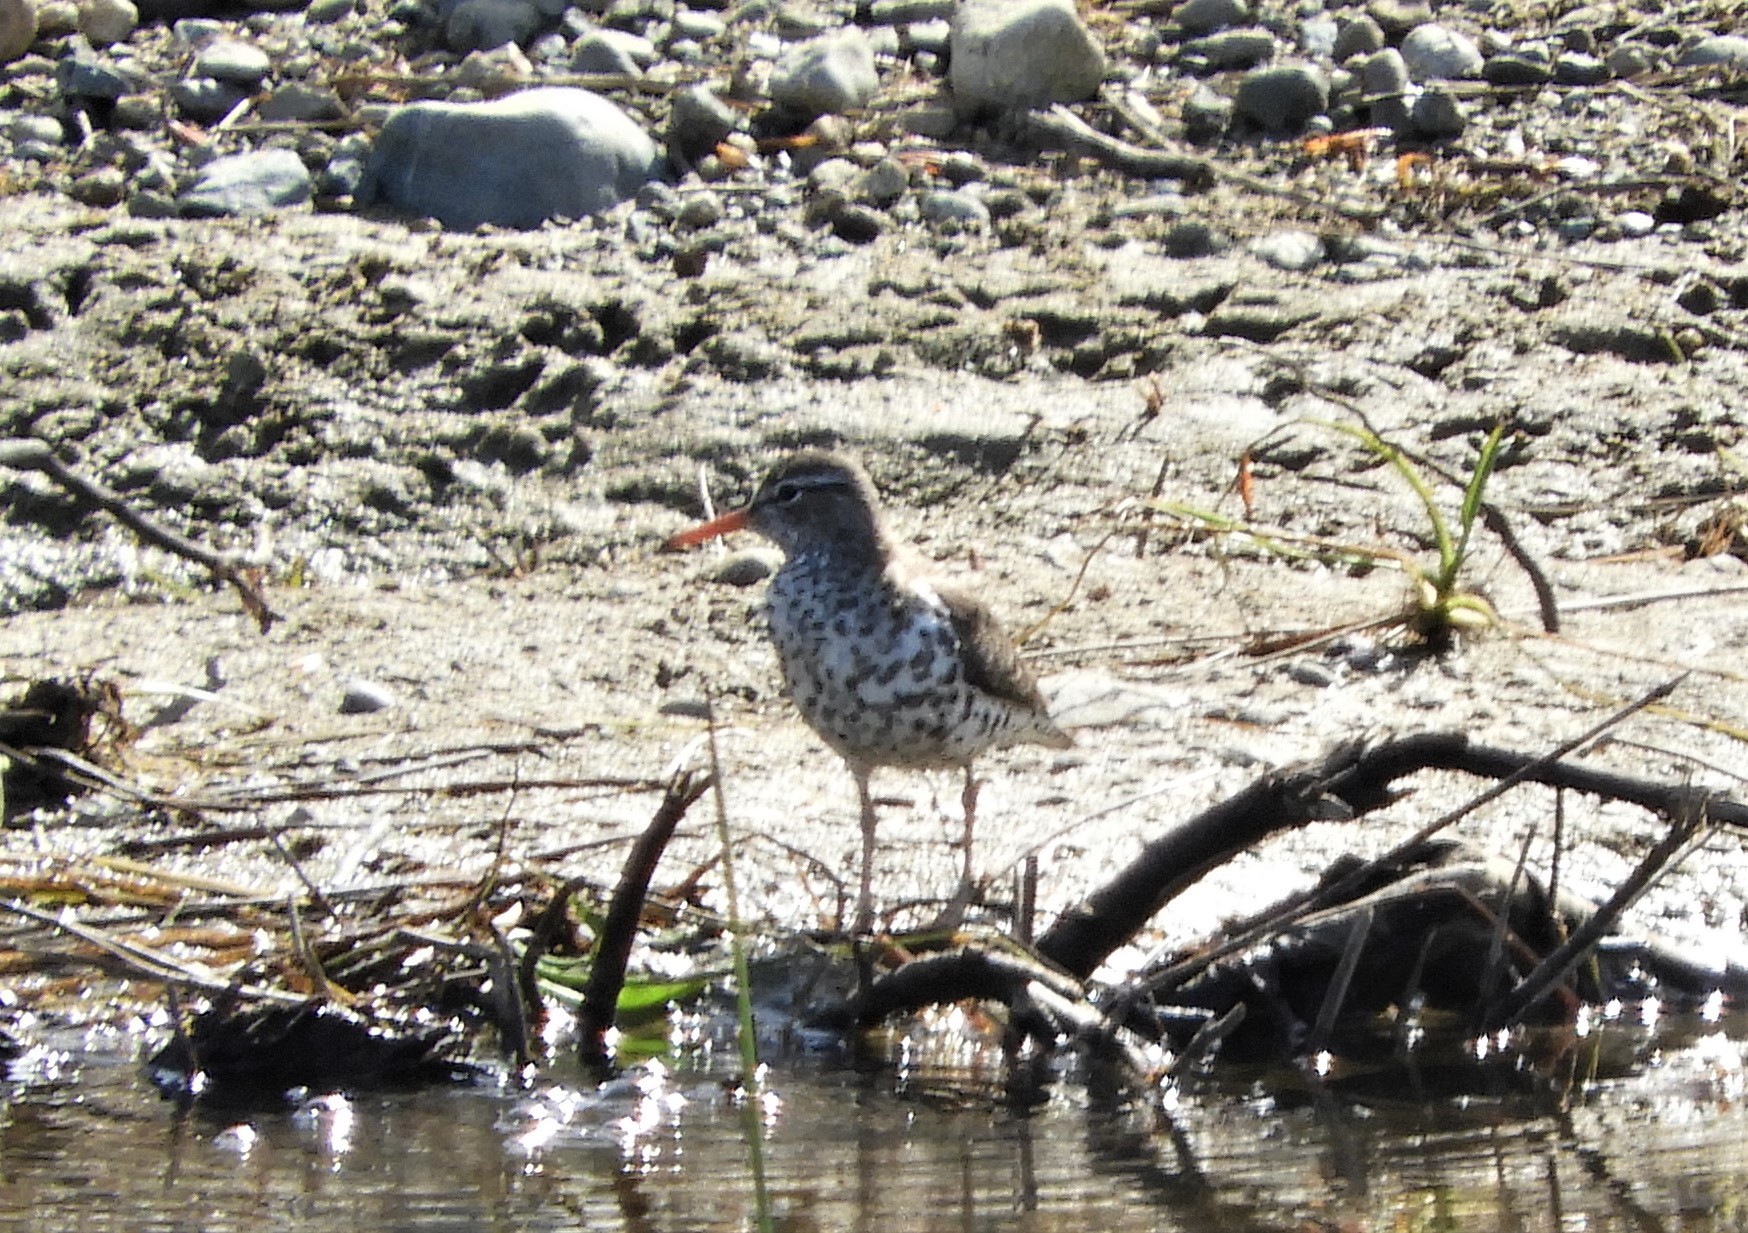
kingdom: Animalia
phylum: Chordata
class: Aves
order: Charadriiformes
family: Scolopacidae
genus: Actitis
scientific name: Actitis macularius
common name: Spotted sandpiper
